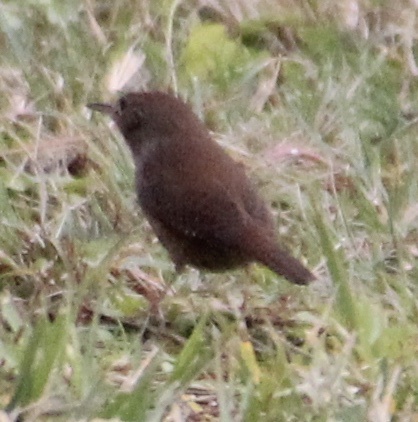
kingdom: Animalia
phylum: Chordata
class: Aves
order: Passeriformes
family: Troglodytidae
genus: Troglodytes
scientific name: Troglodytes aedon
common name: House wren
